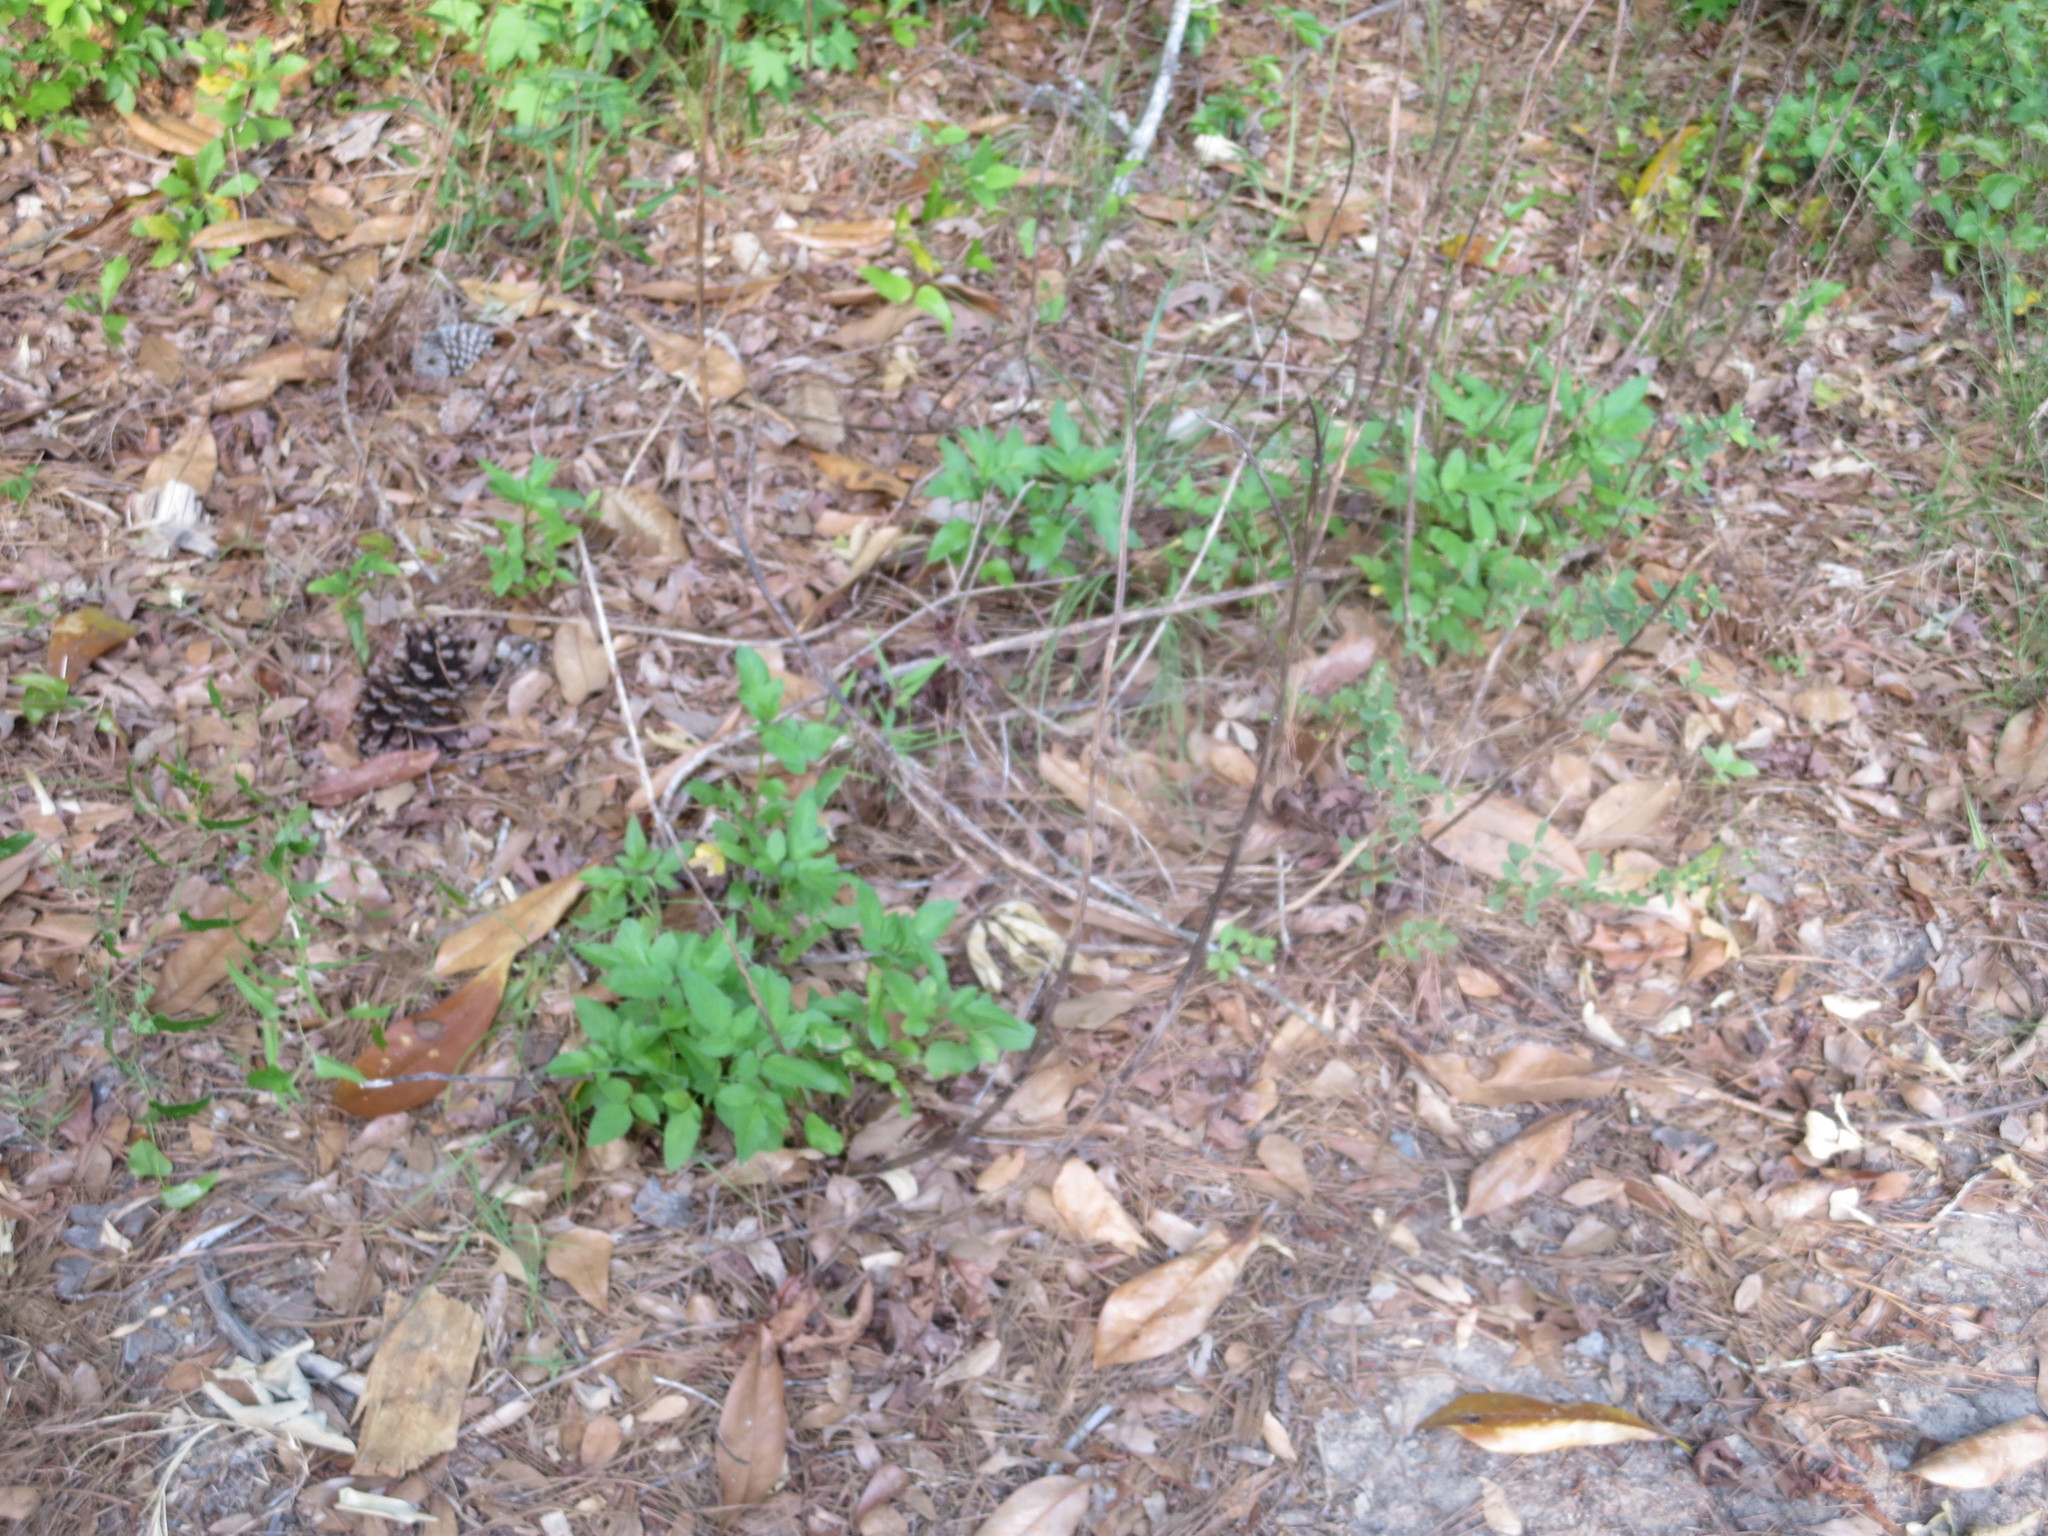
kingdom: Plantae
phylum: Tracheophyta
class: Magnoliopsida
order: Asterales
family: Asteraceae
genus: Bidens
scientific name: Bidens alba
